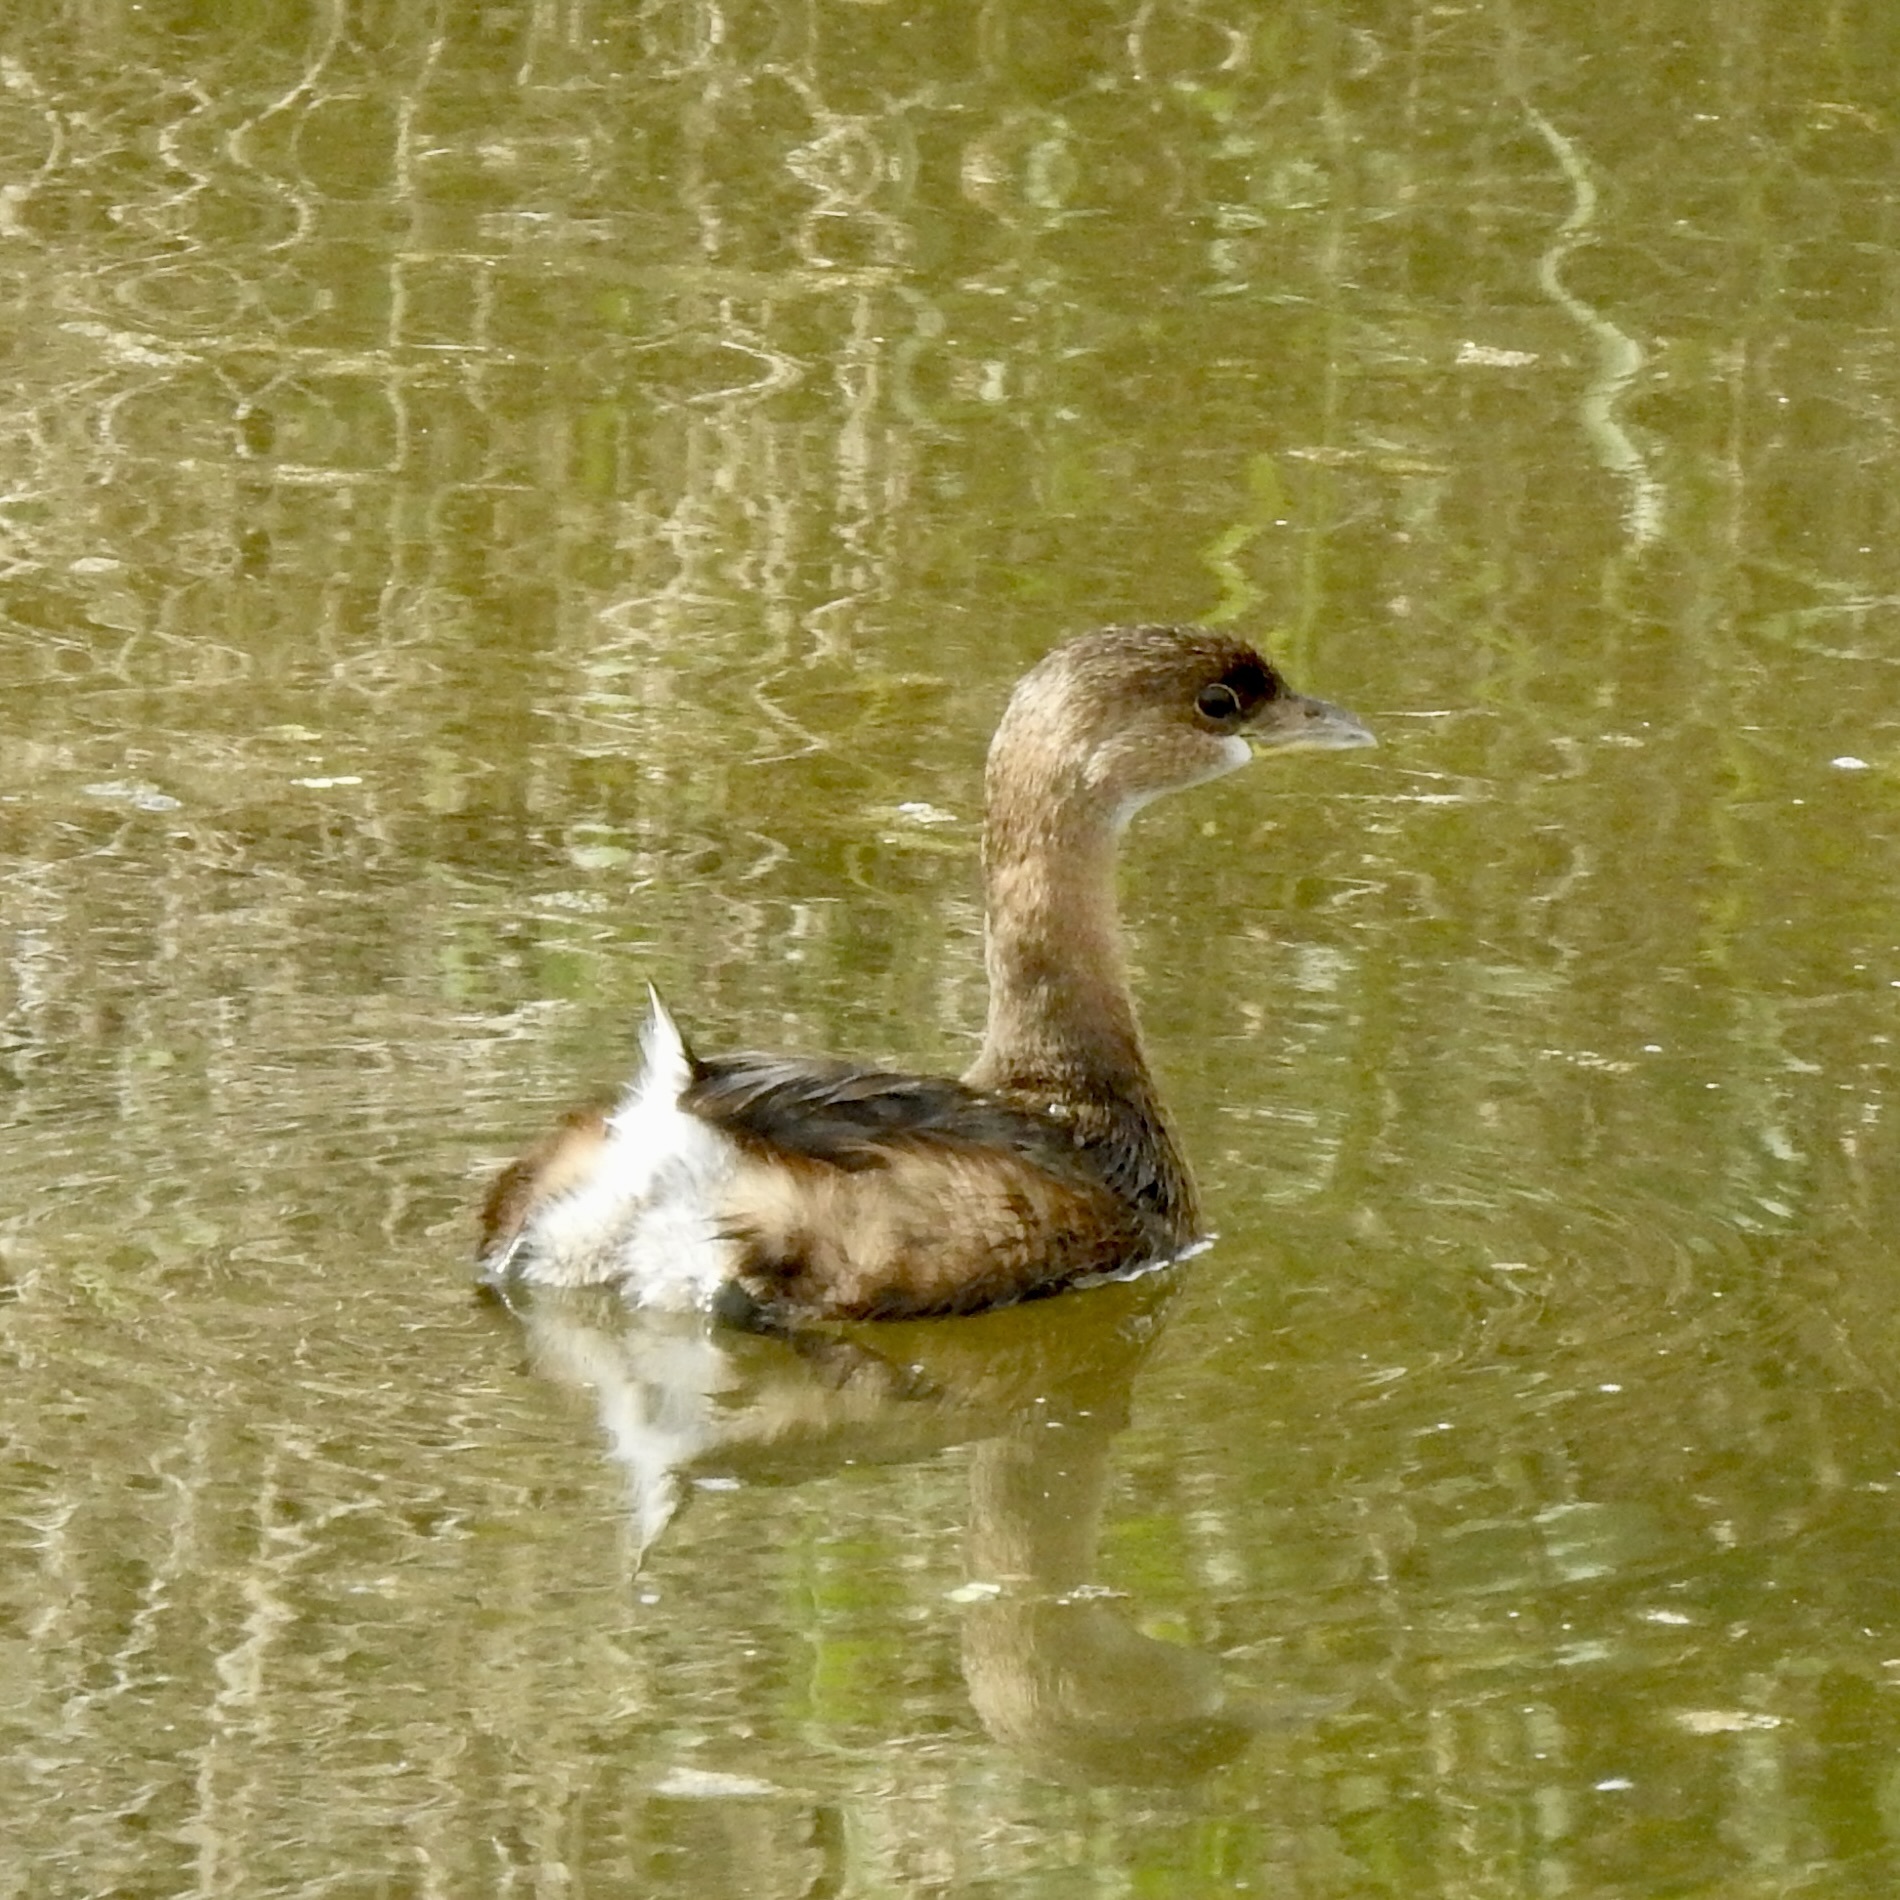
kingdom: Animalia
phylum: Chordata
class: Aves
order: Podicipediformes
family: Podicipedidae
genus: Podilymbus
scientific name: Podilymbus podiceps
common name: Pied-billed grebe
